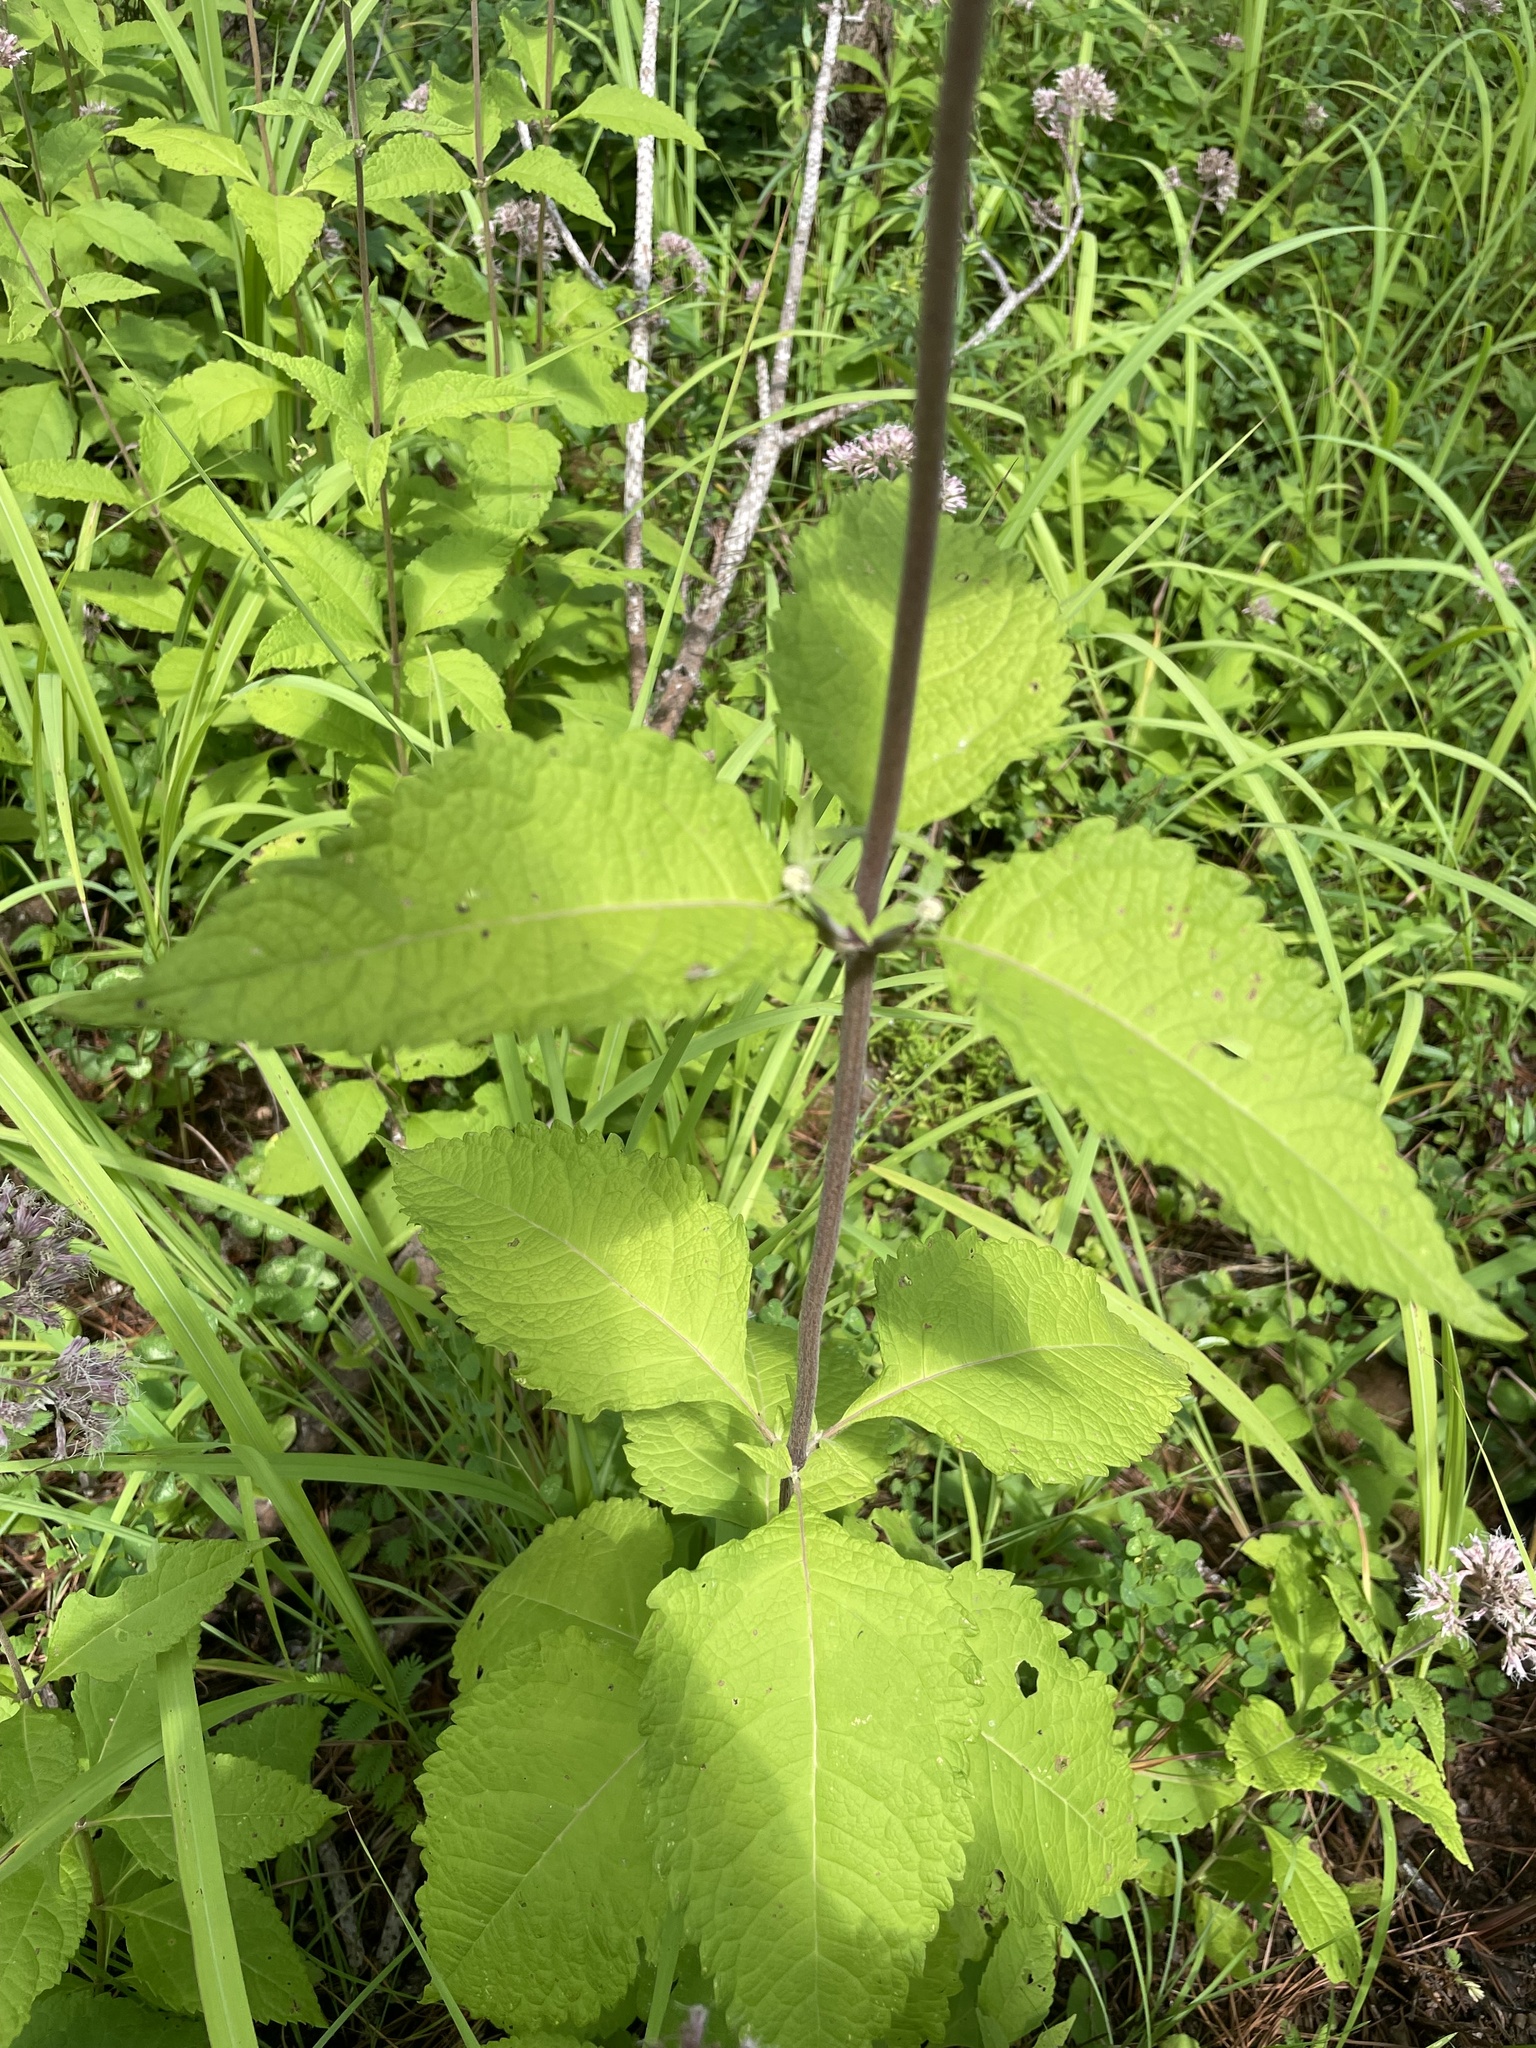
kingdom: Plantae
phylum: Tracheophyta
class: Magnoliopsida
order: Asterales
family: Asteraceae
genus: Eutrochium
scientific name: Eutrochium dubium
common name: Coastal plain joe pye weed
